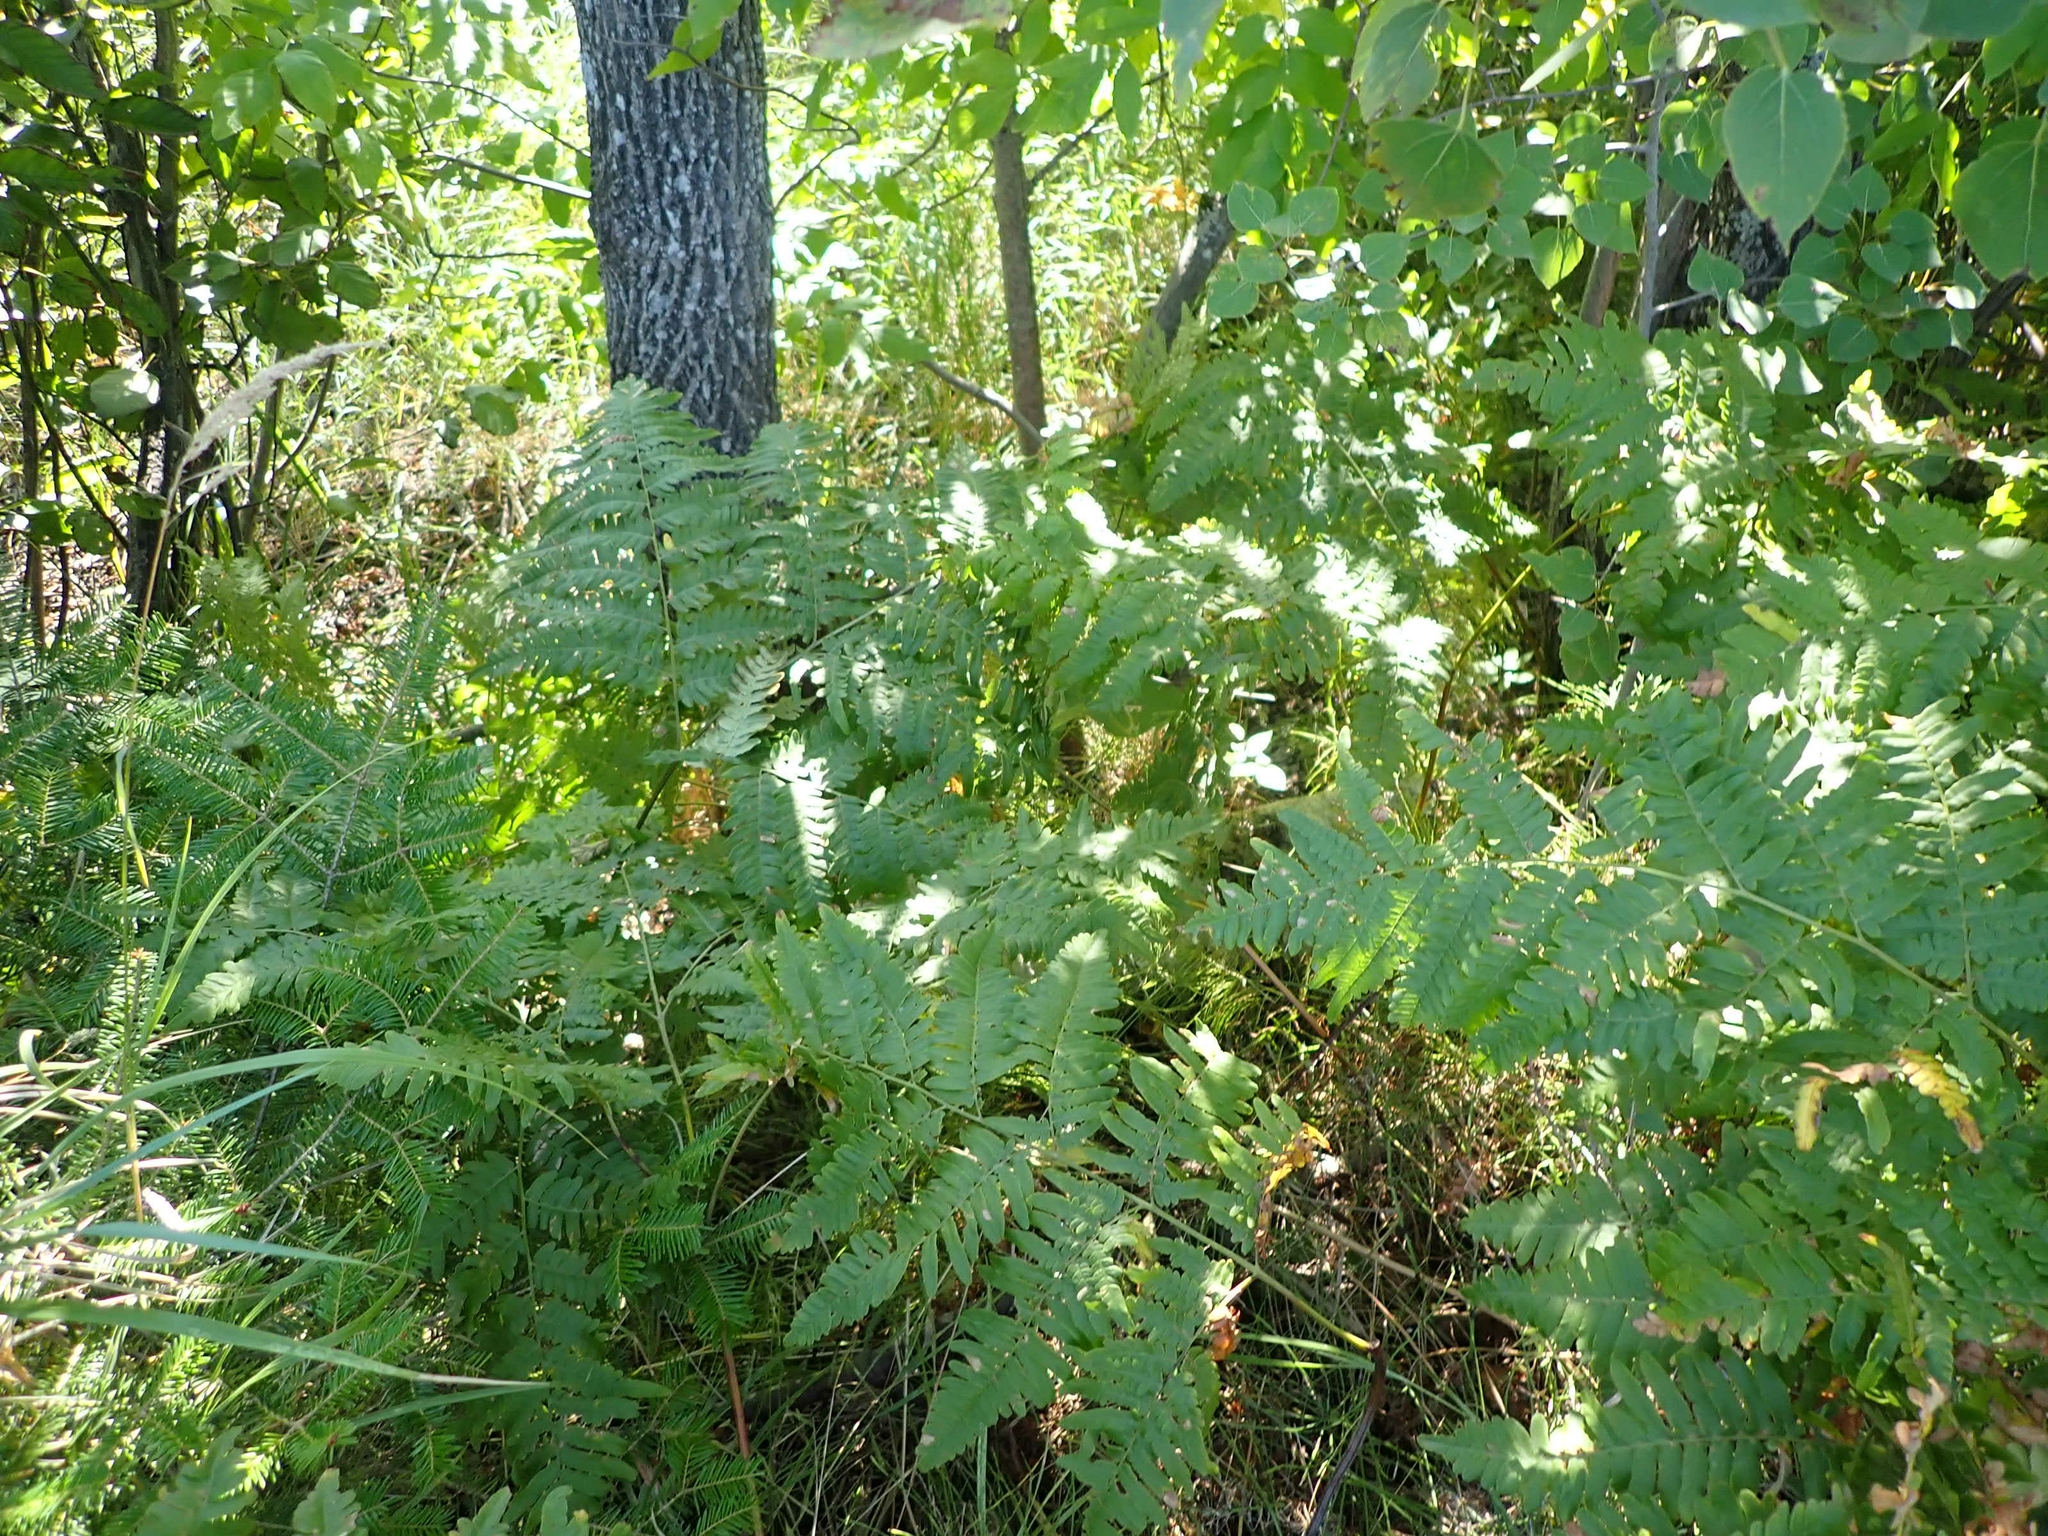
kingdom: Plantae
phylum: Tracheophyta
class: Polypodiopsida
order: Polypodiales
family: Dennstaedtiaceae
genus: Pteridium
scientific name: Pteridium aquilinum
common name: Bracken
